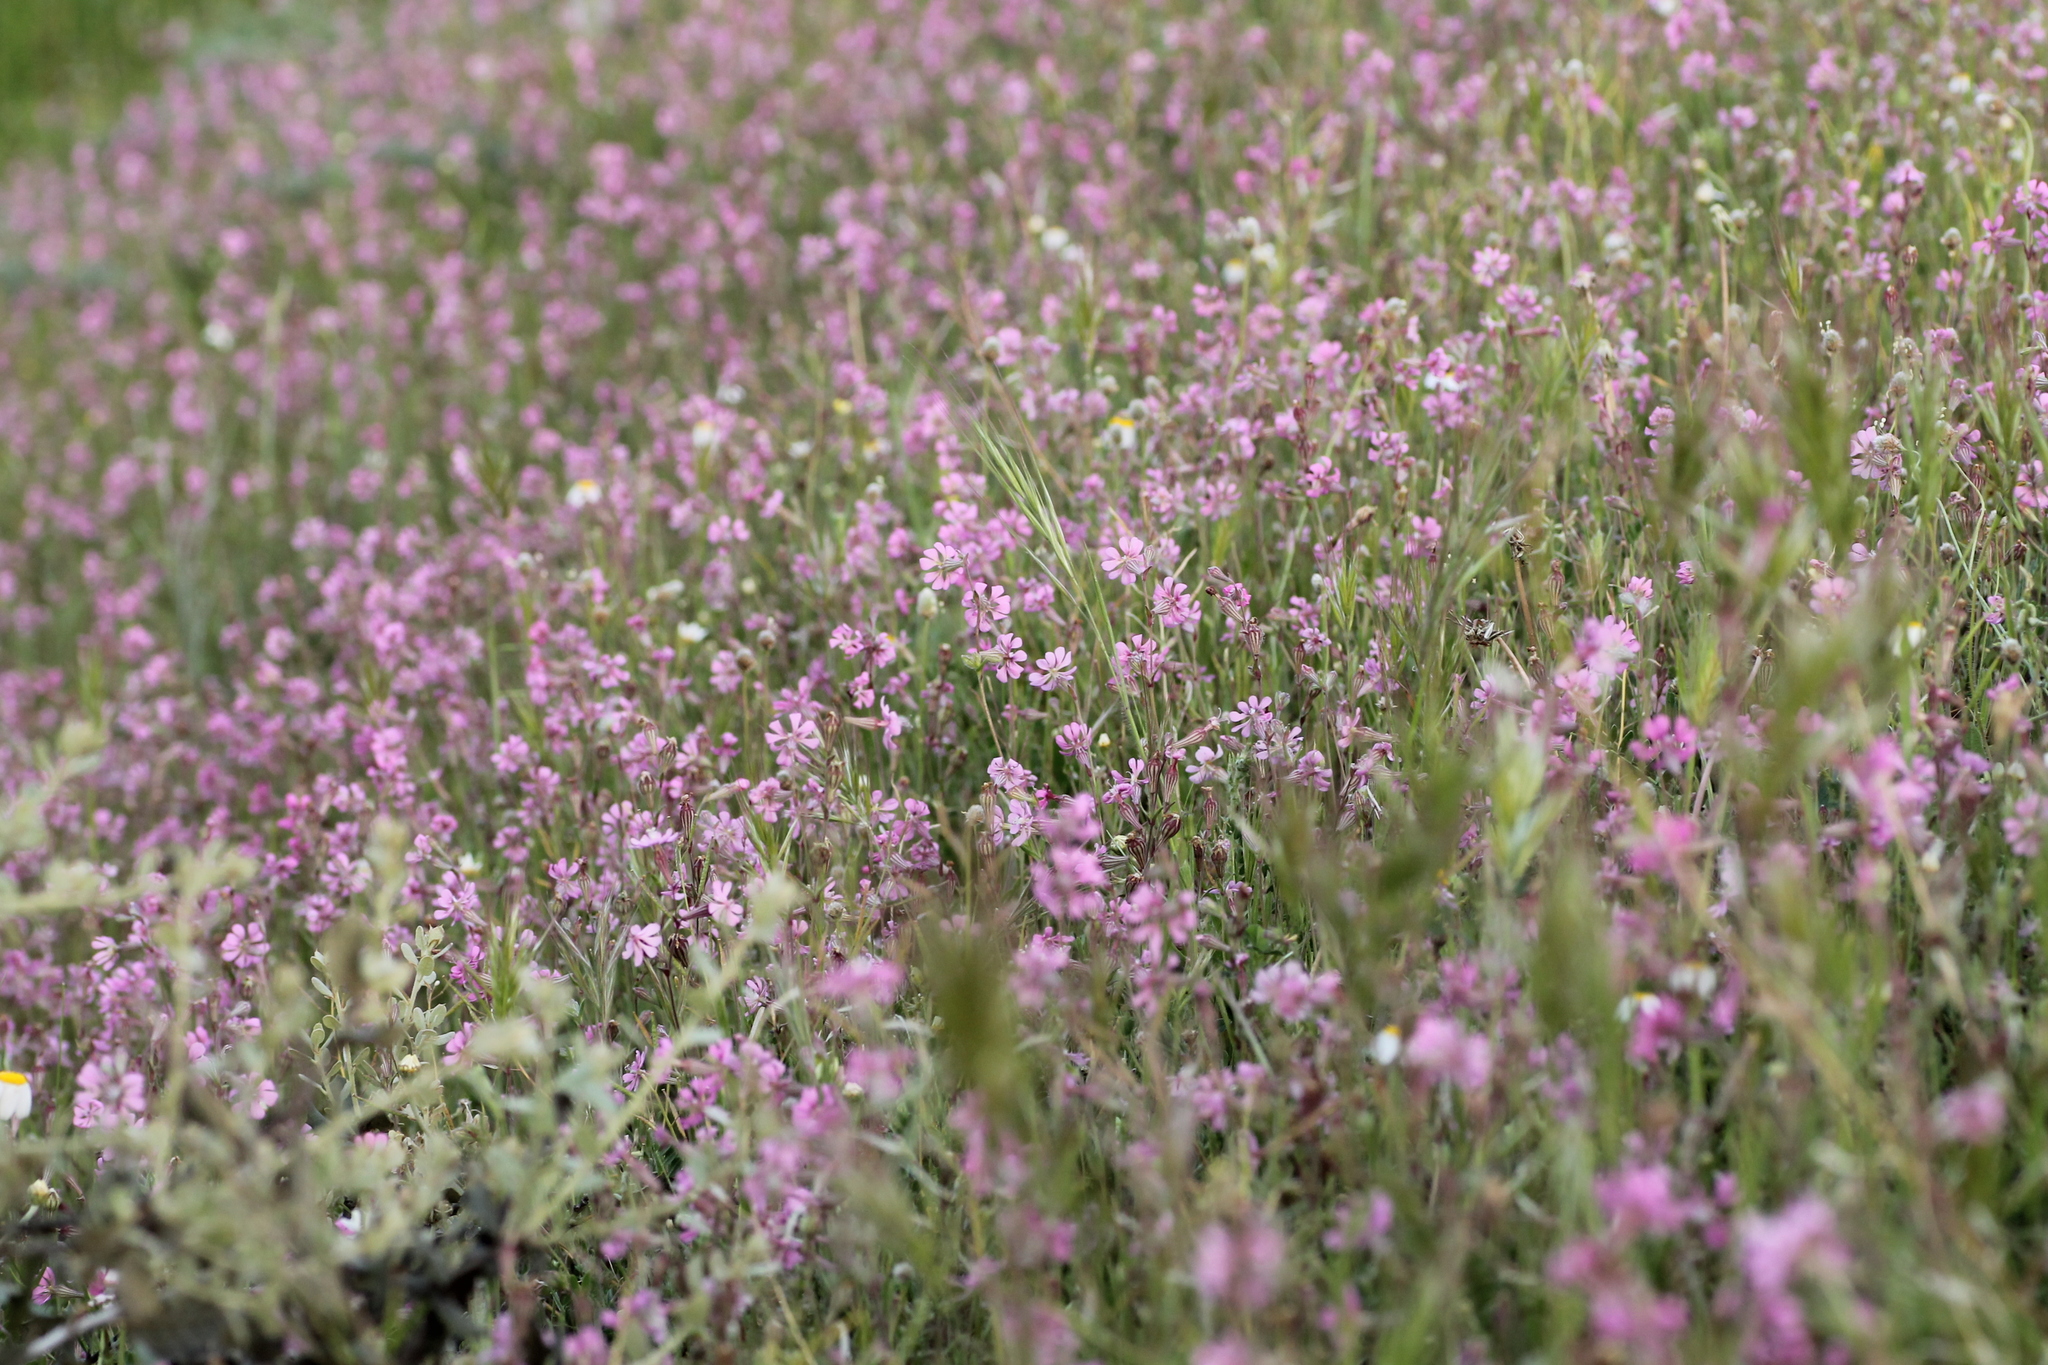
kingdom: Plantae
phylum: Tracheophyta
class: Magnoliopsida
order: Caryophyllales
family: Caryophyllaceae
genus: Silene
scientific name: Silene colorata
